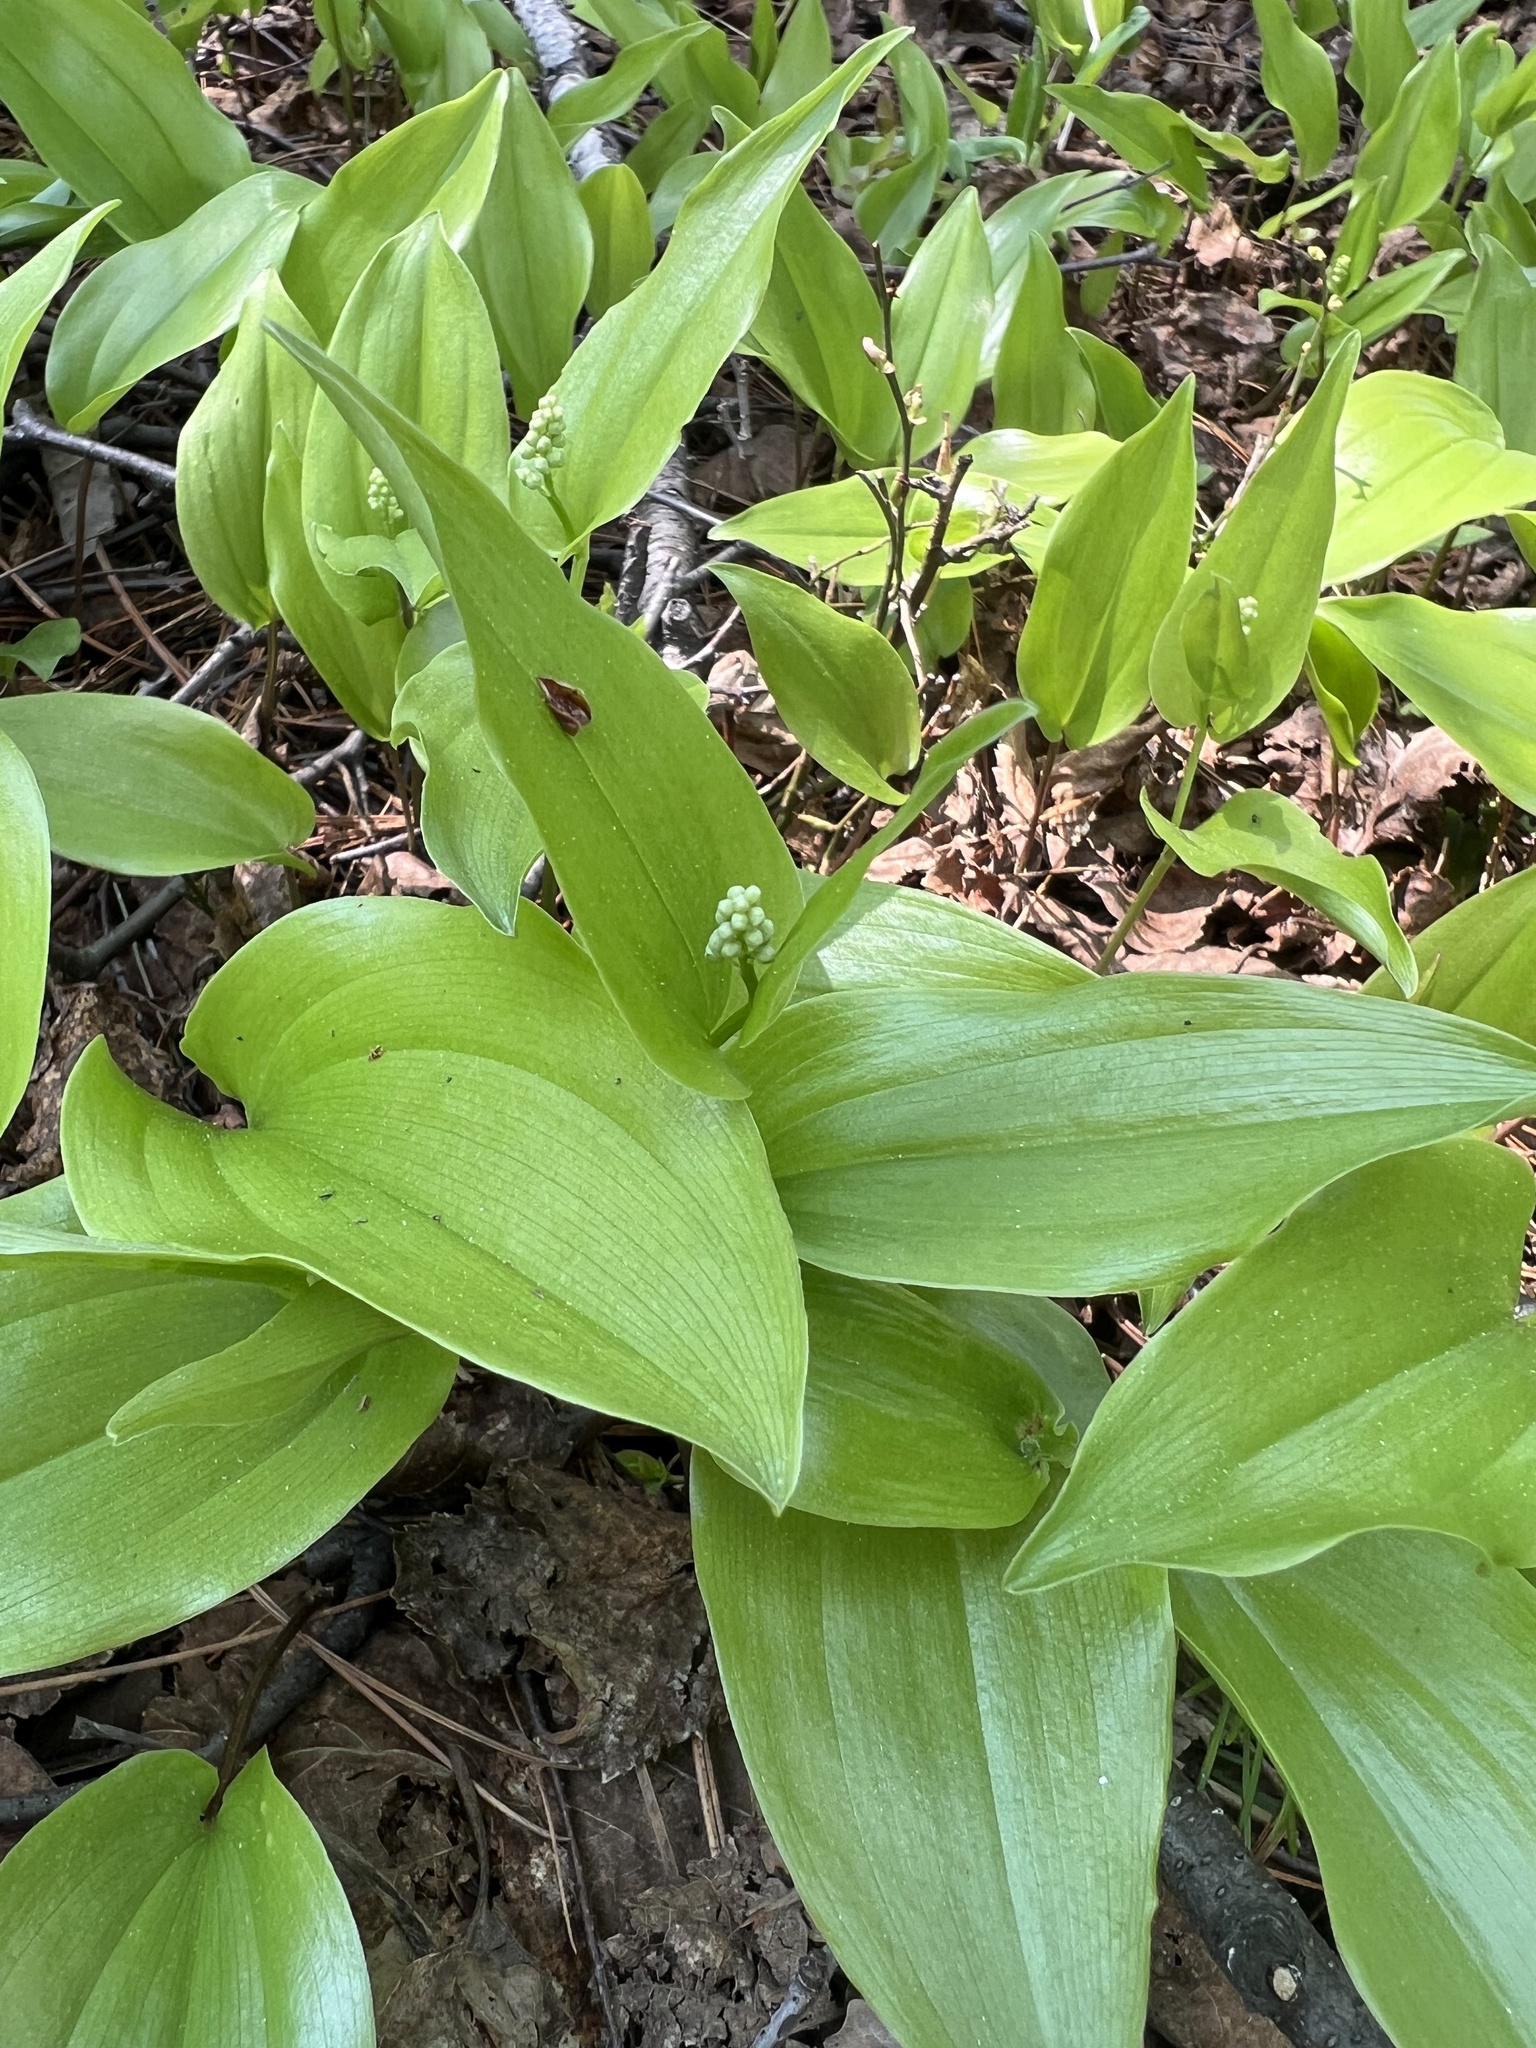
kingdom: Plantae
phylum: Tracheophyta
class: Liliopsida
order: Asparagales
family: Asparagaceae
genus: Maianthemum
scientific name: Maianthemum canadense
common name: False lily-of-the-valley
